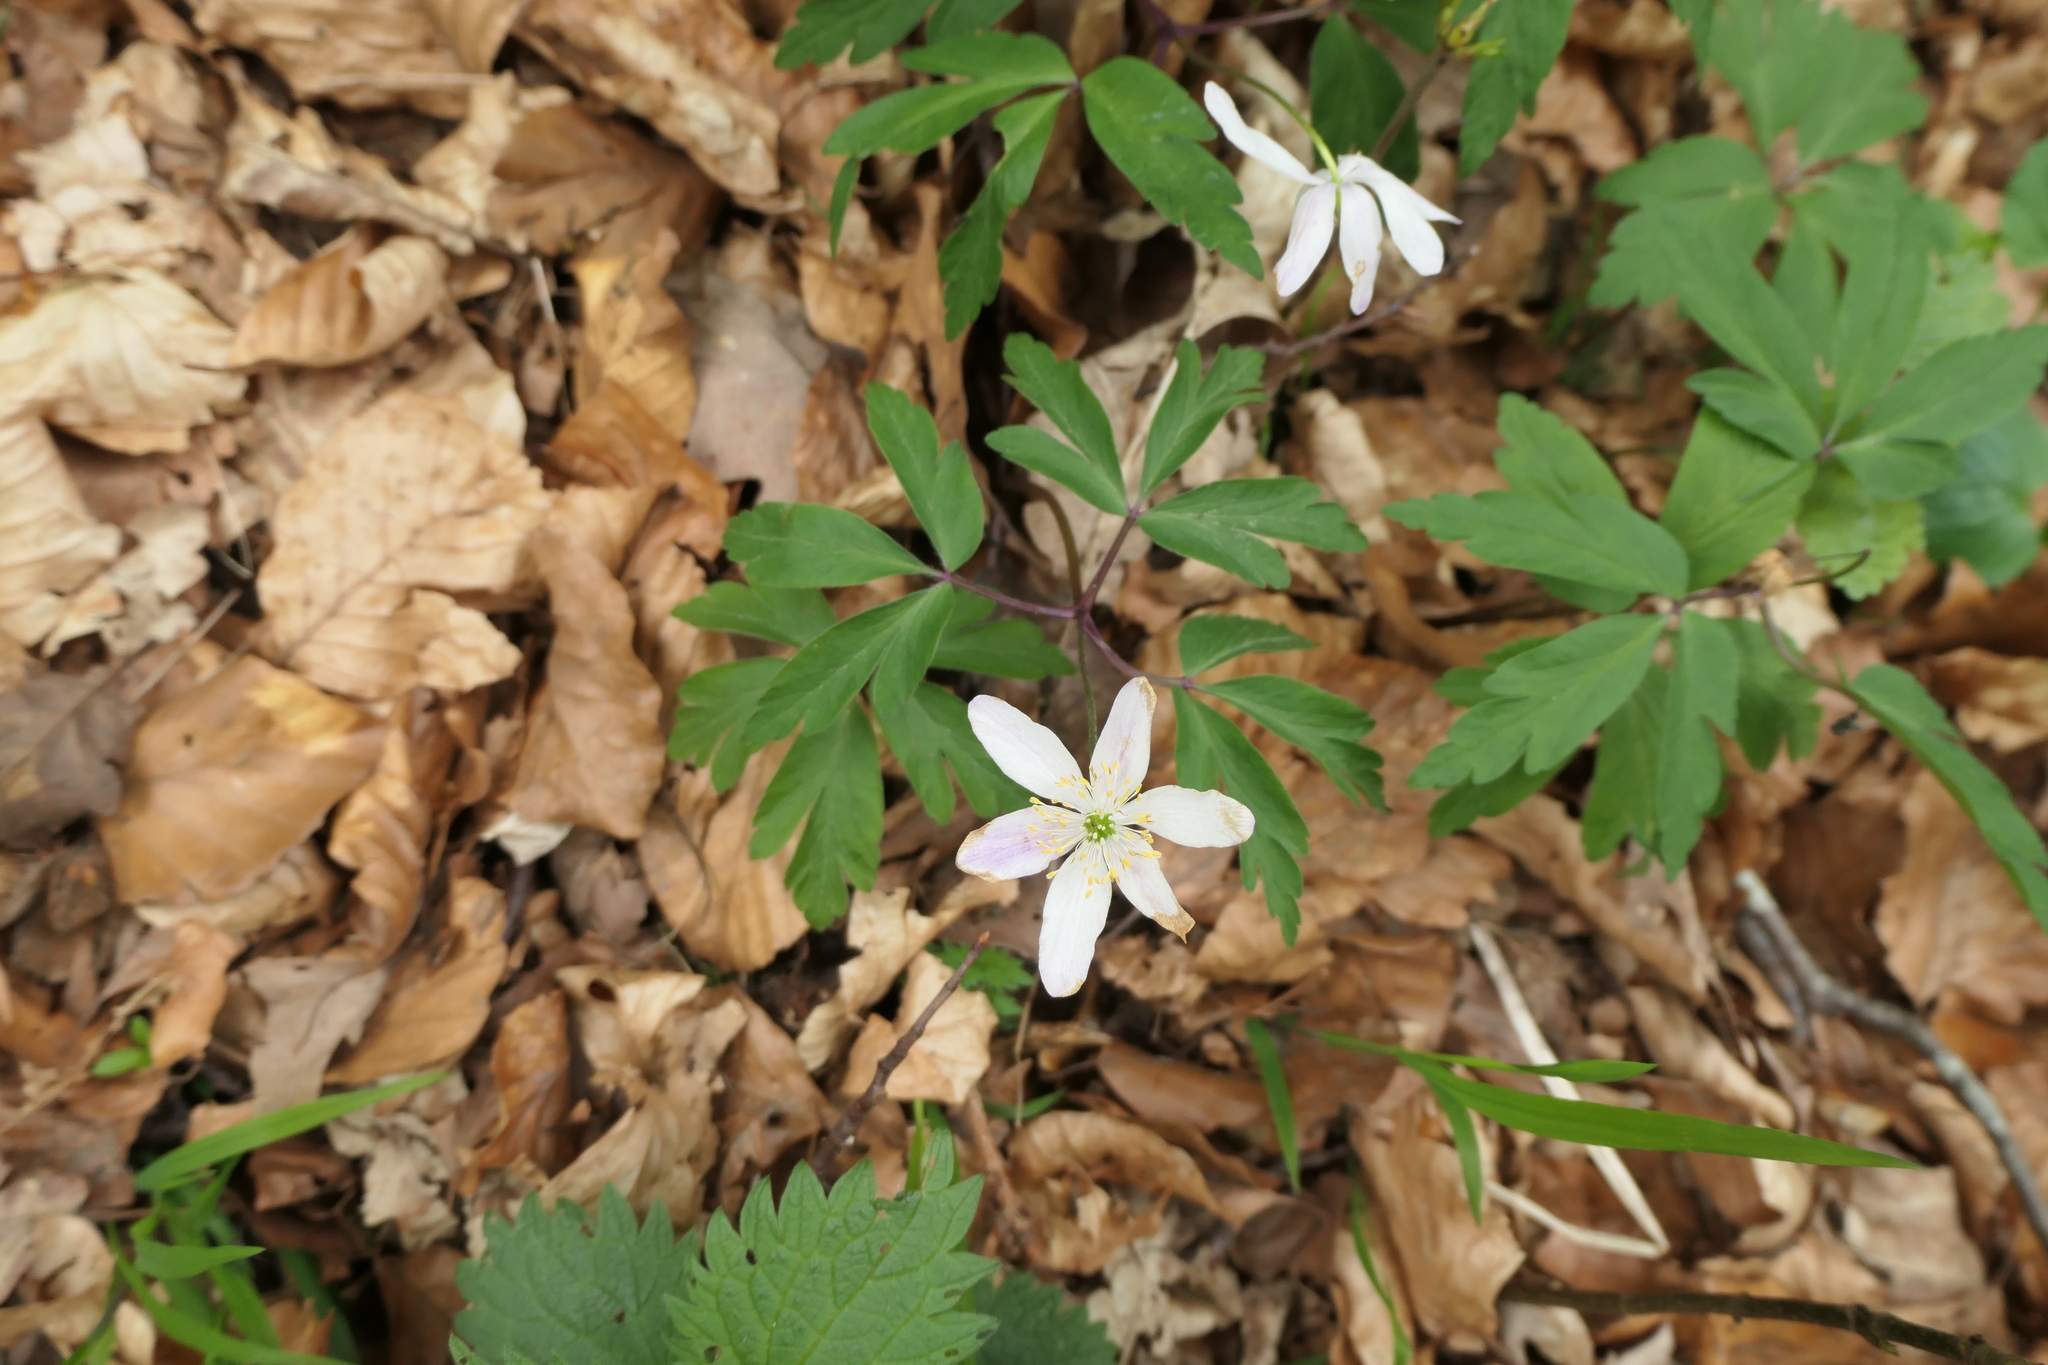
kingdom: Plantae
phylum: Tracheophyta
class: Magnoliopsida
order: Ranunculales
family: Ranunculaceae
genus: Anemone
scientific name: Anemone nemorosa
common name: Wood anemone
